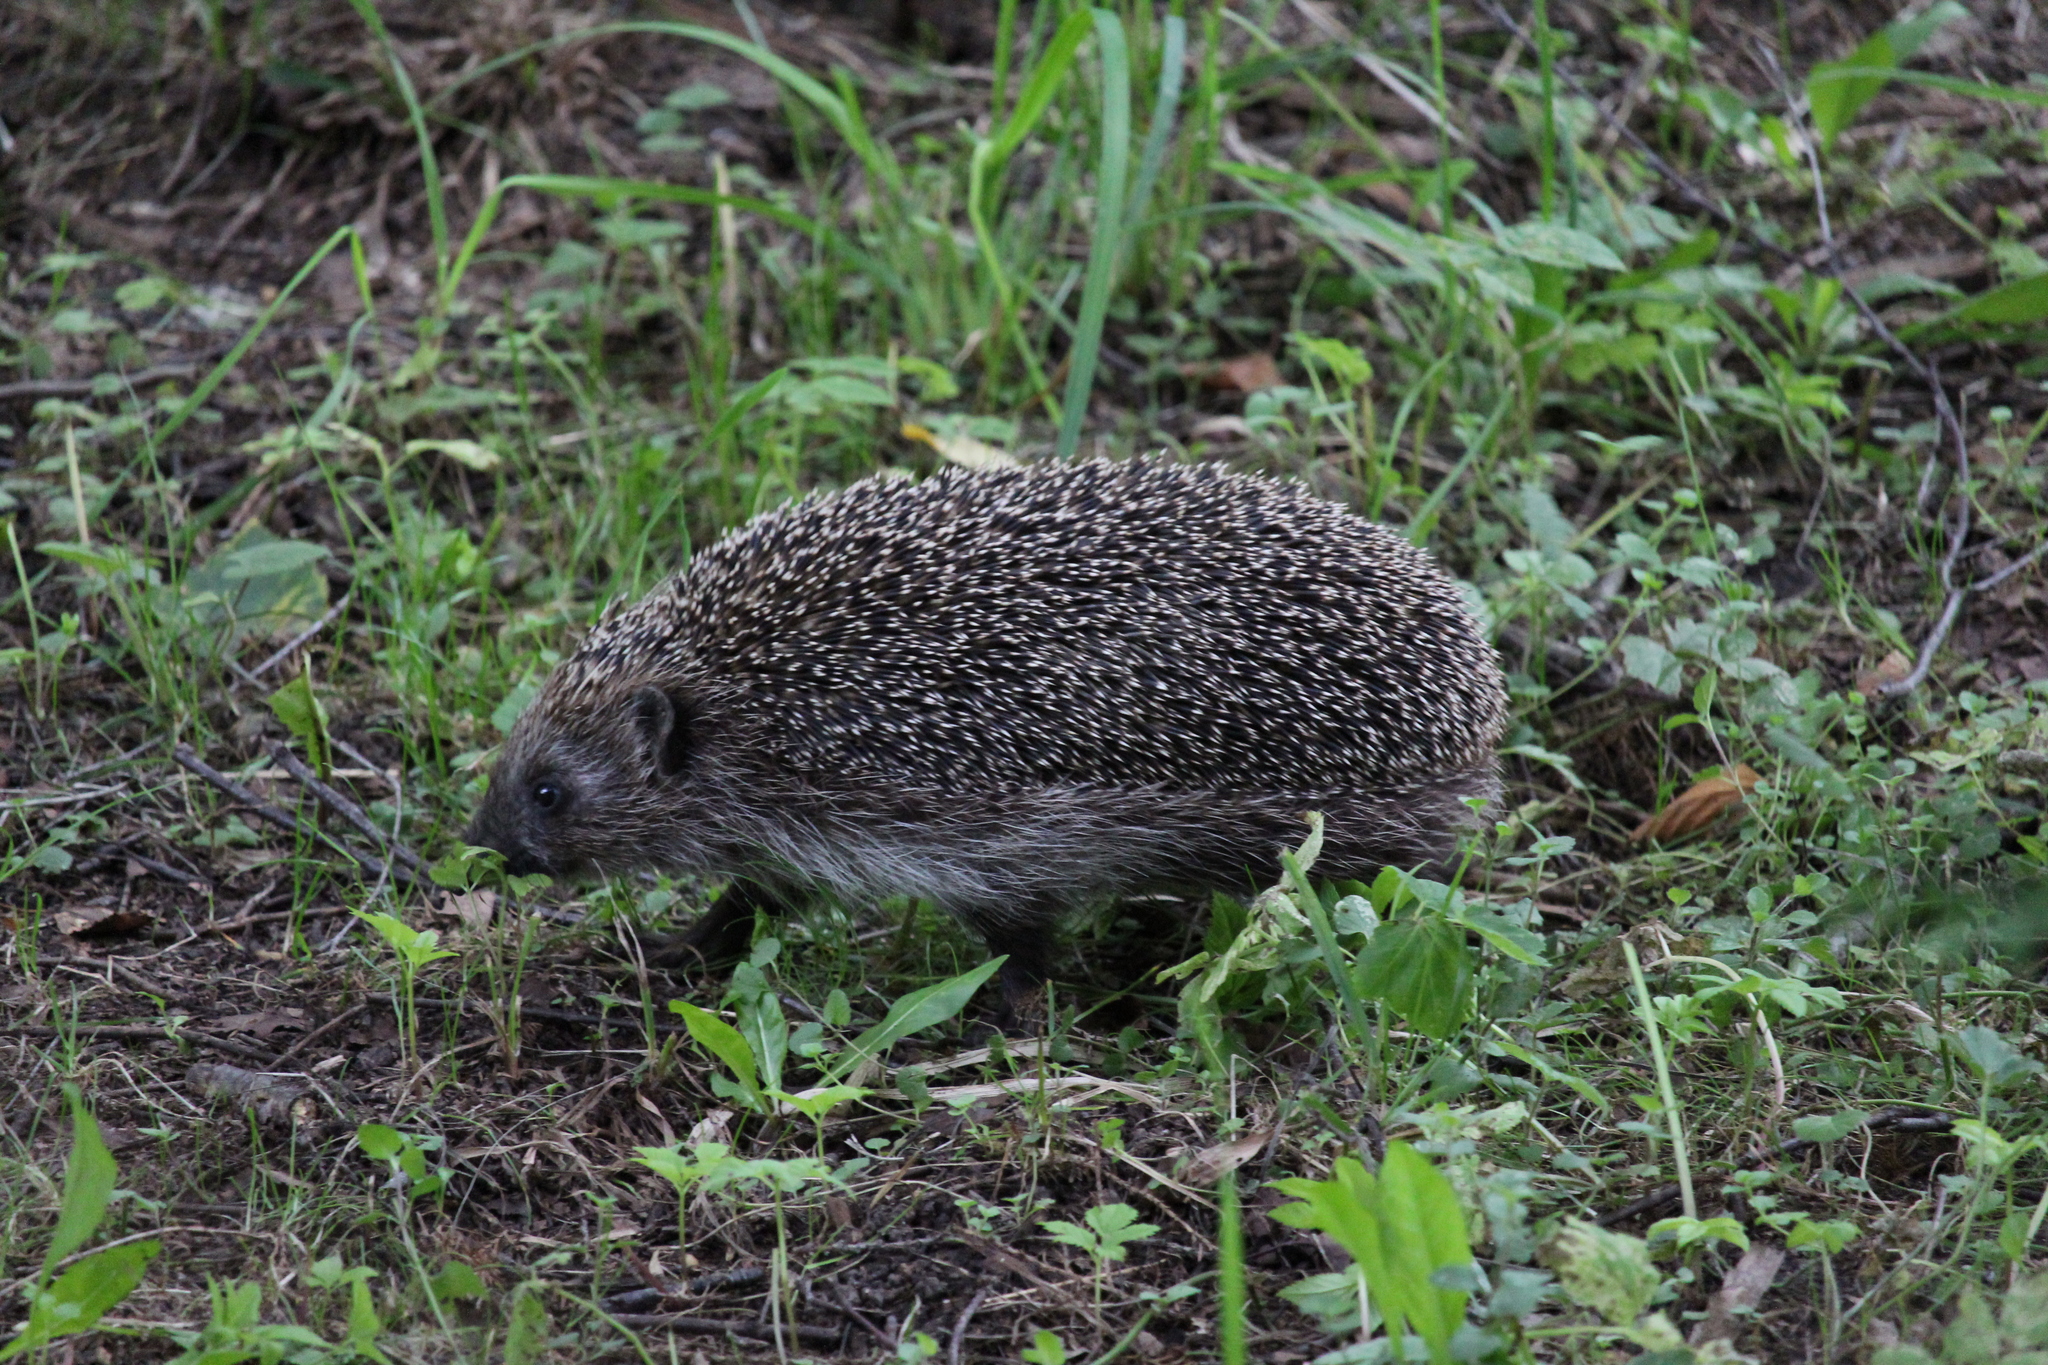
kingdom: Animalia
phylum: Chordata
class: Mammalia
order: Erinaceomorpha
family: Erinaceidae
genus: Erinaceus
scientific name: Erinaceus europaeus
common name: West european hedgehog
